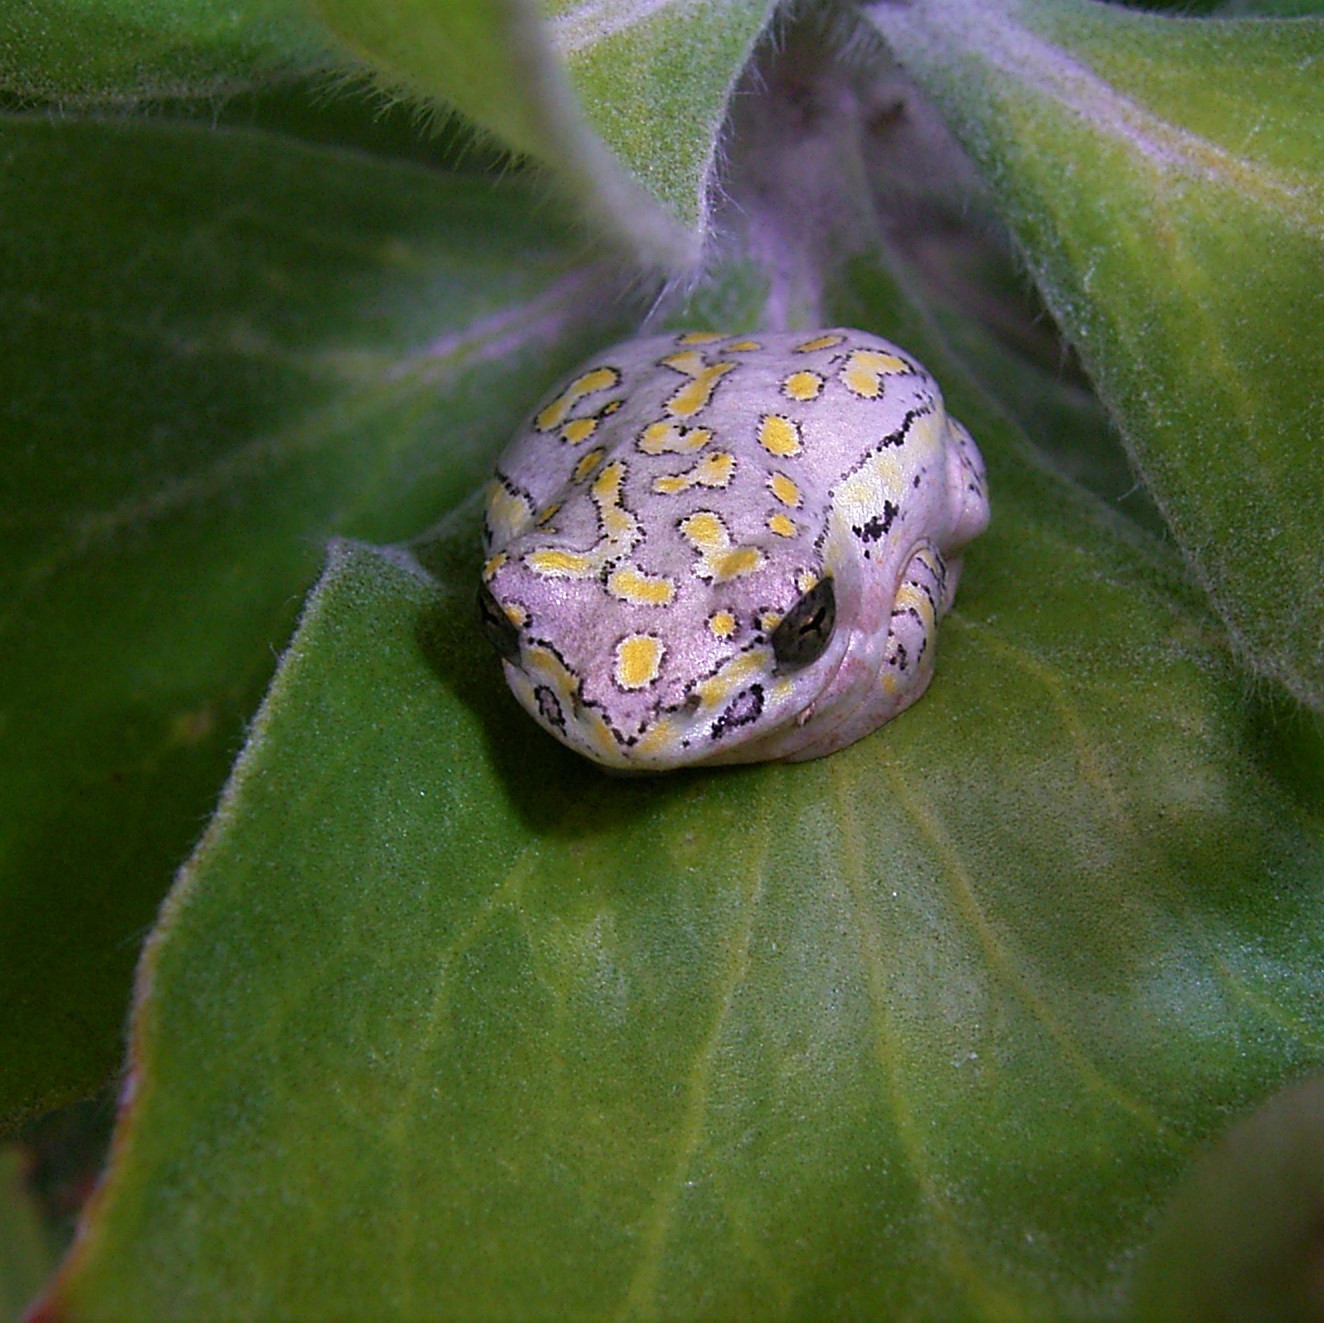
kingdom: Animalia
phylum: Chordata
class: Amphibia
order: Anura
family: Hyperoliidae
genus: Hyperolius
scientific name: Hyperolius marmoratus
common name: Painted reed frog
